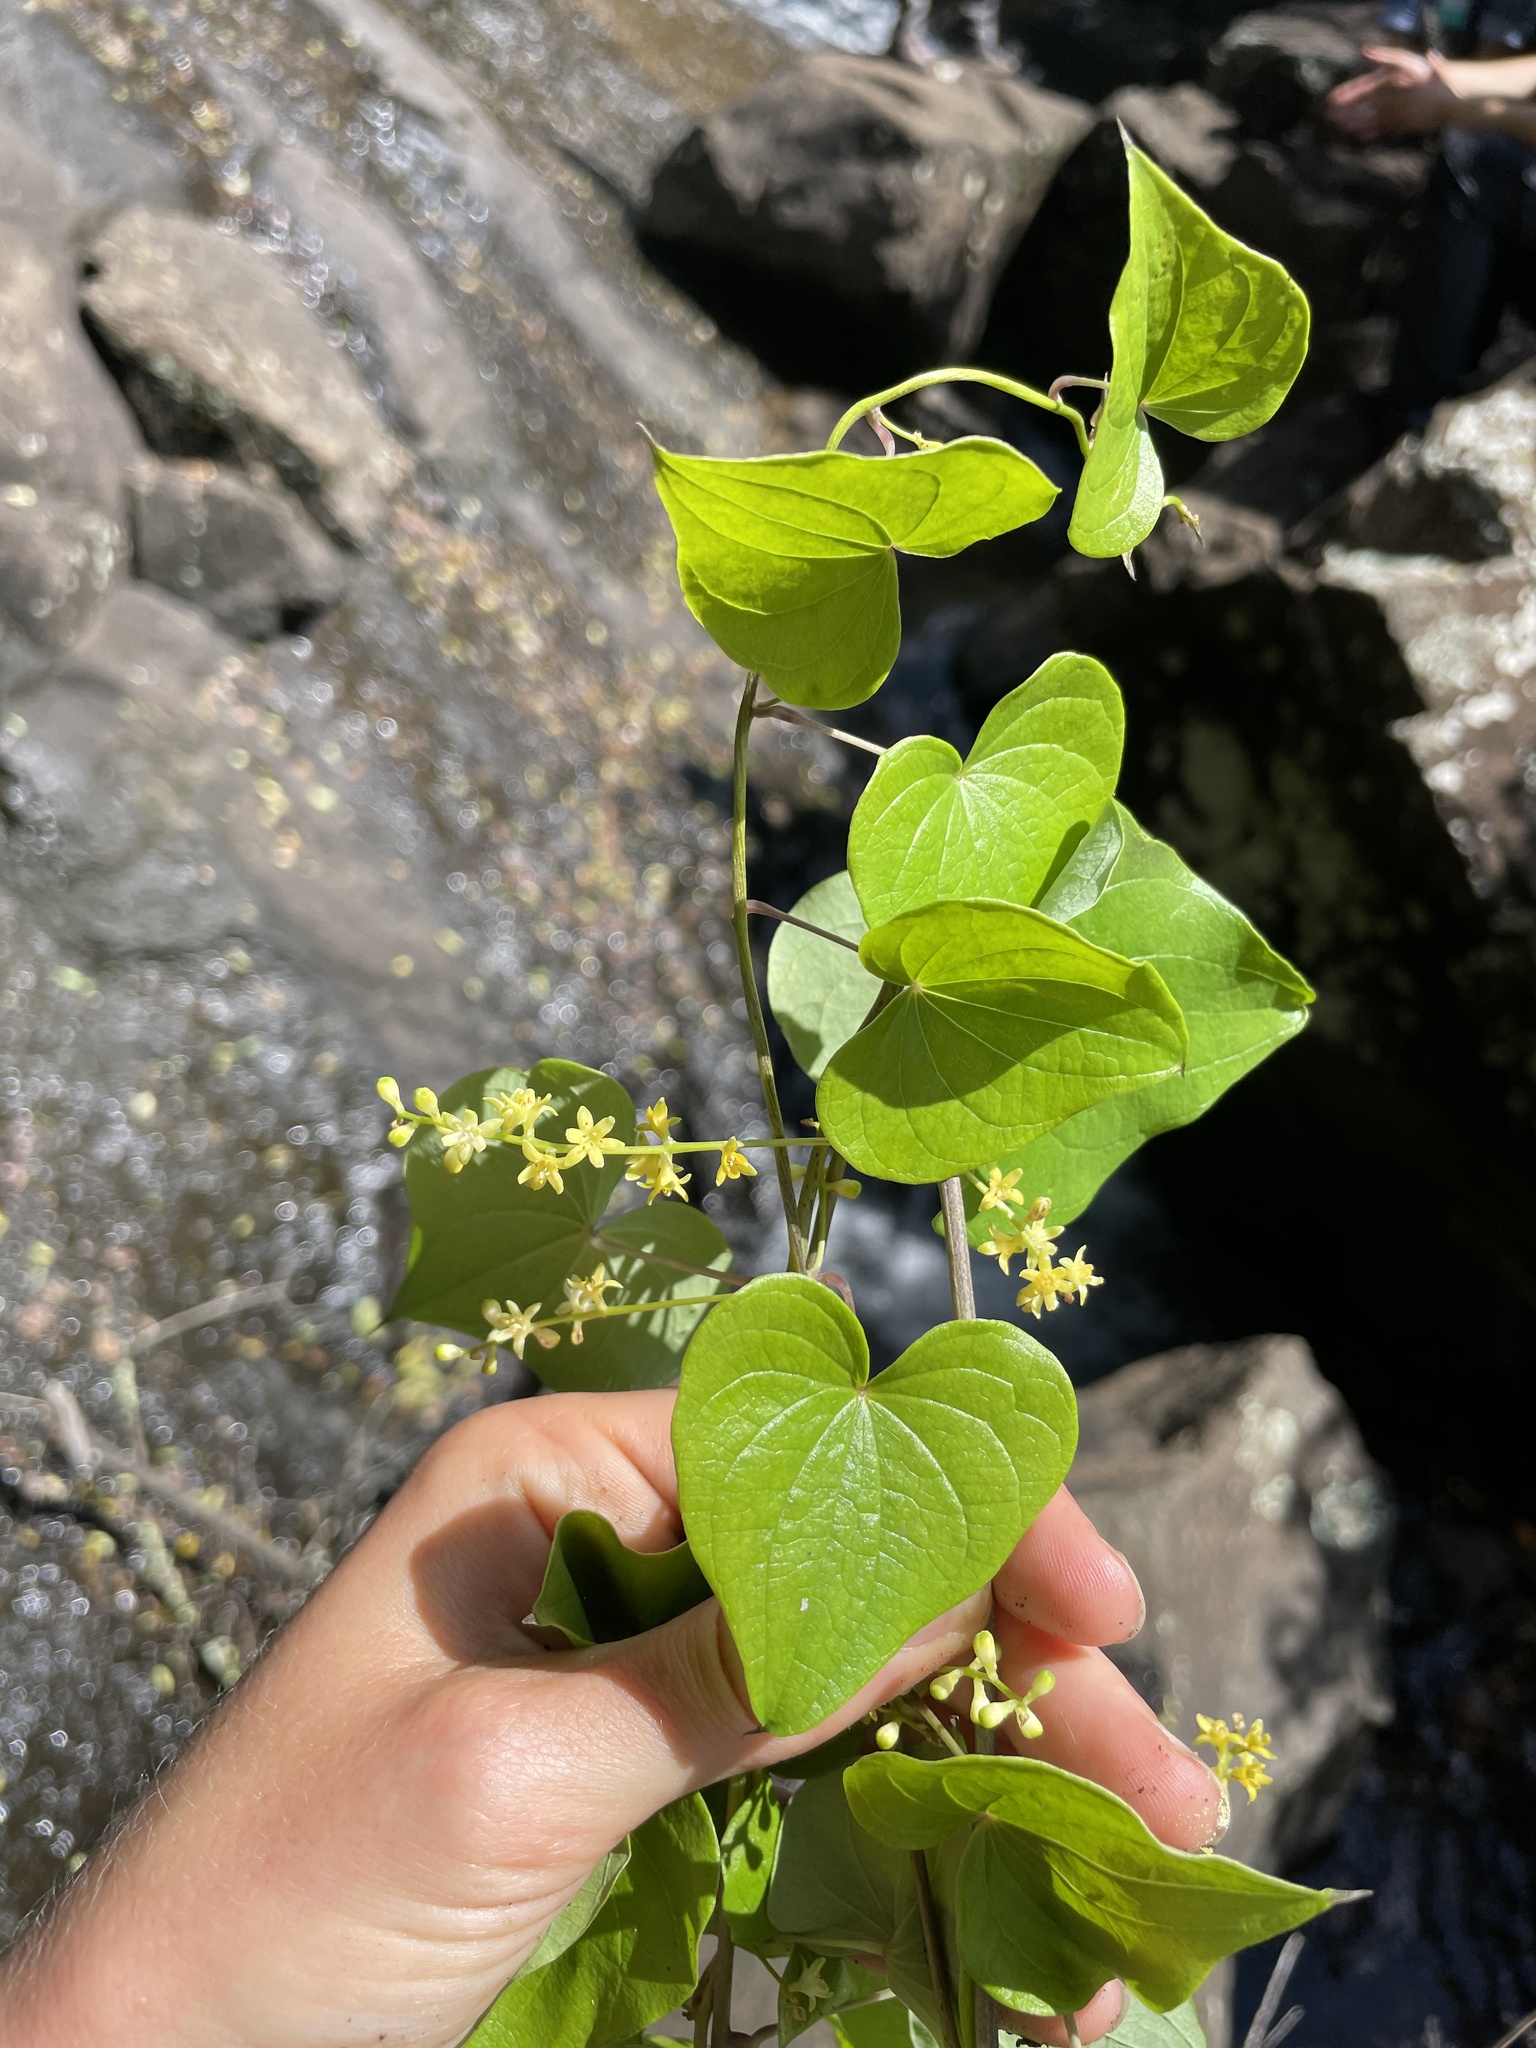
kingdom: Plantae
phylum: Tracheophyta
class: Liliopsida
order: Dioscoreales
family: Dioscoreaceae
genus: Dioscorea
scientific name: Dioscorea sylvatica
